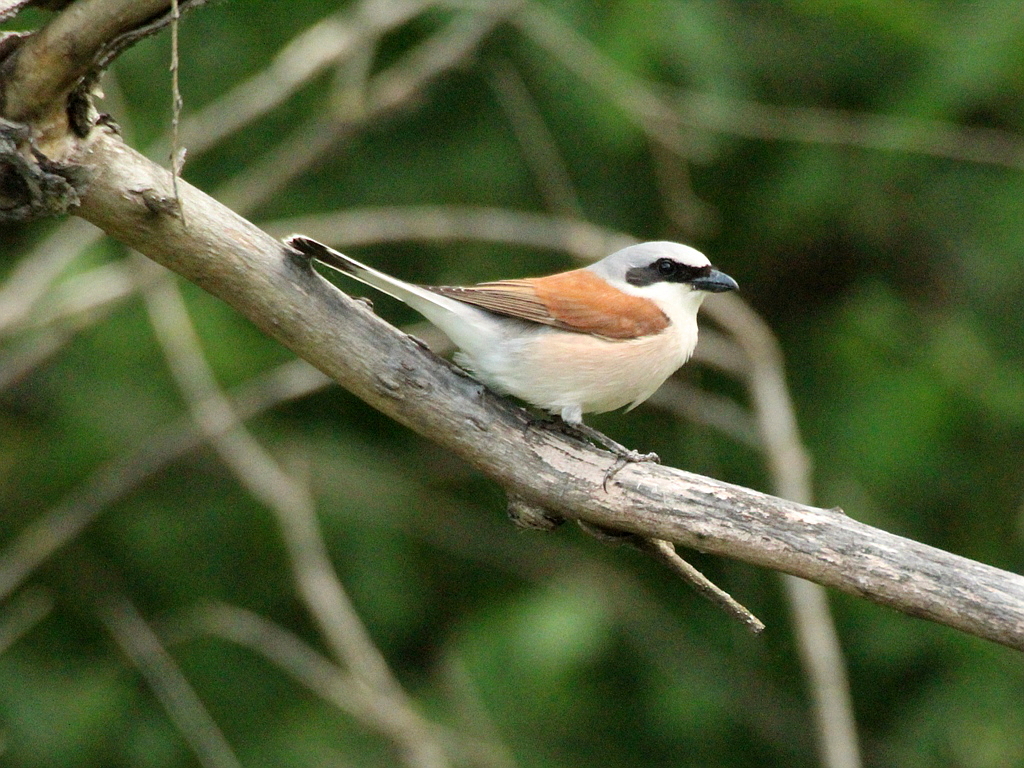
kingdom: Animalia
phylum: Chordata
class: Aves
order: Passeriformes
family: Laniidae
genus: Lanius
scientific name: Lanius collurio
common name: Red-backed shrike
